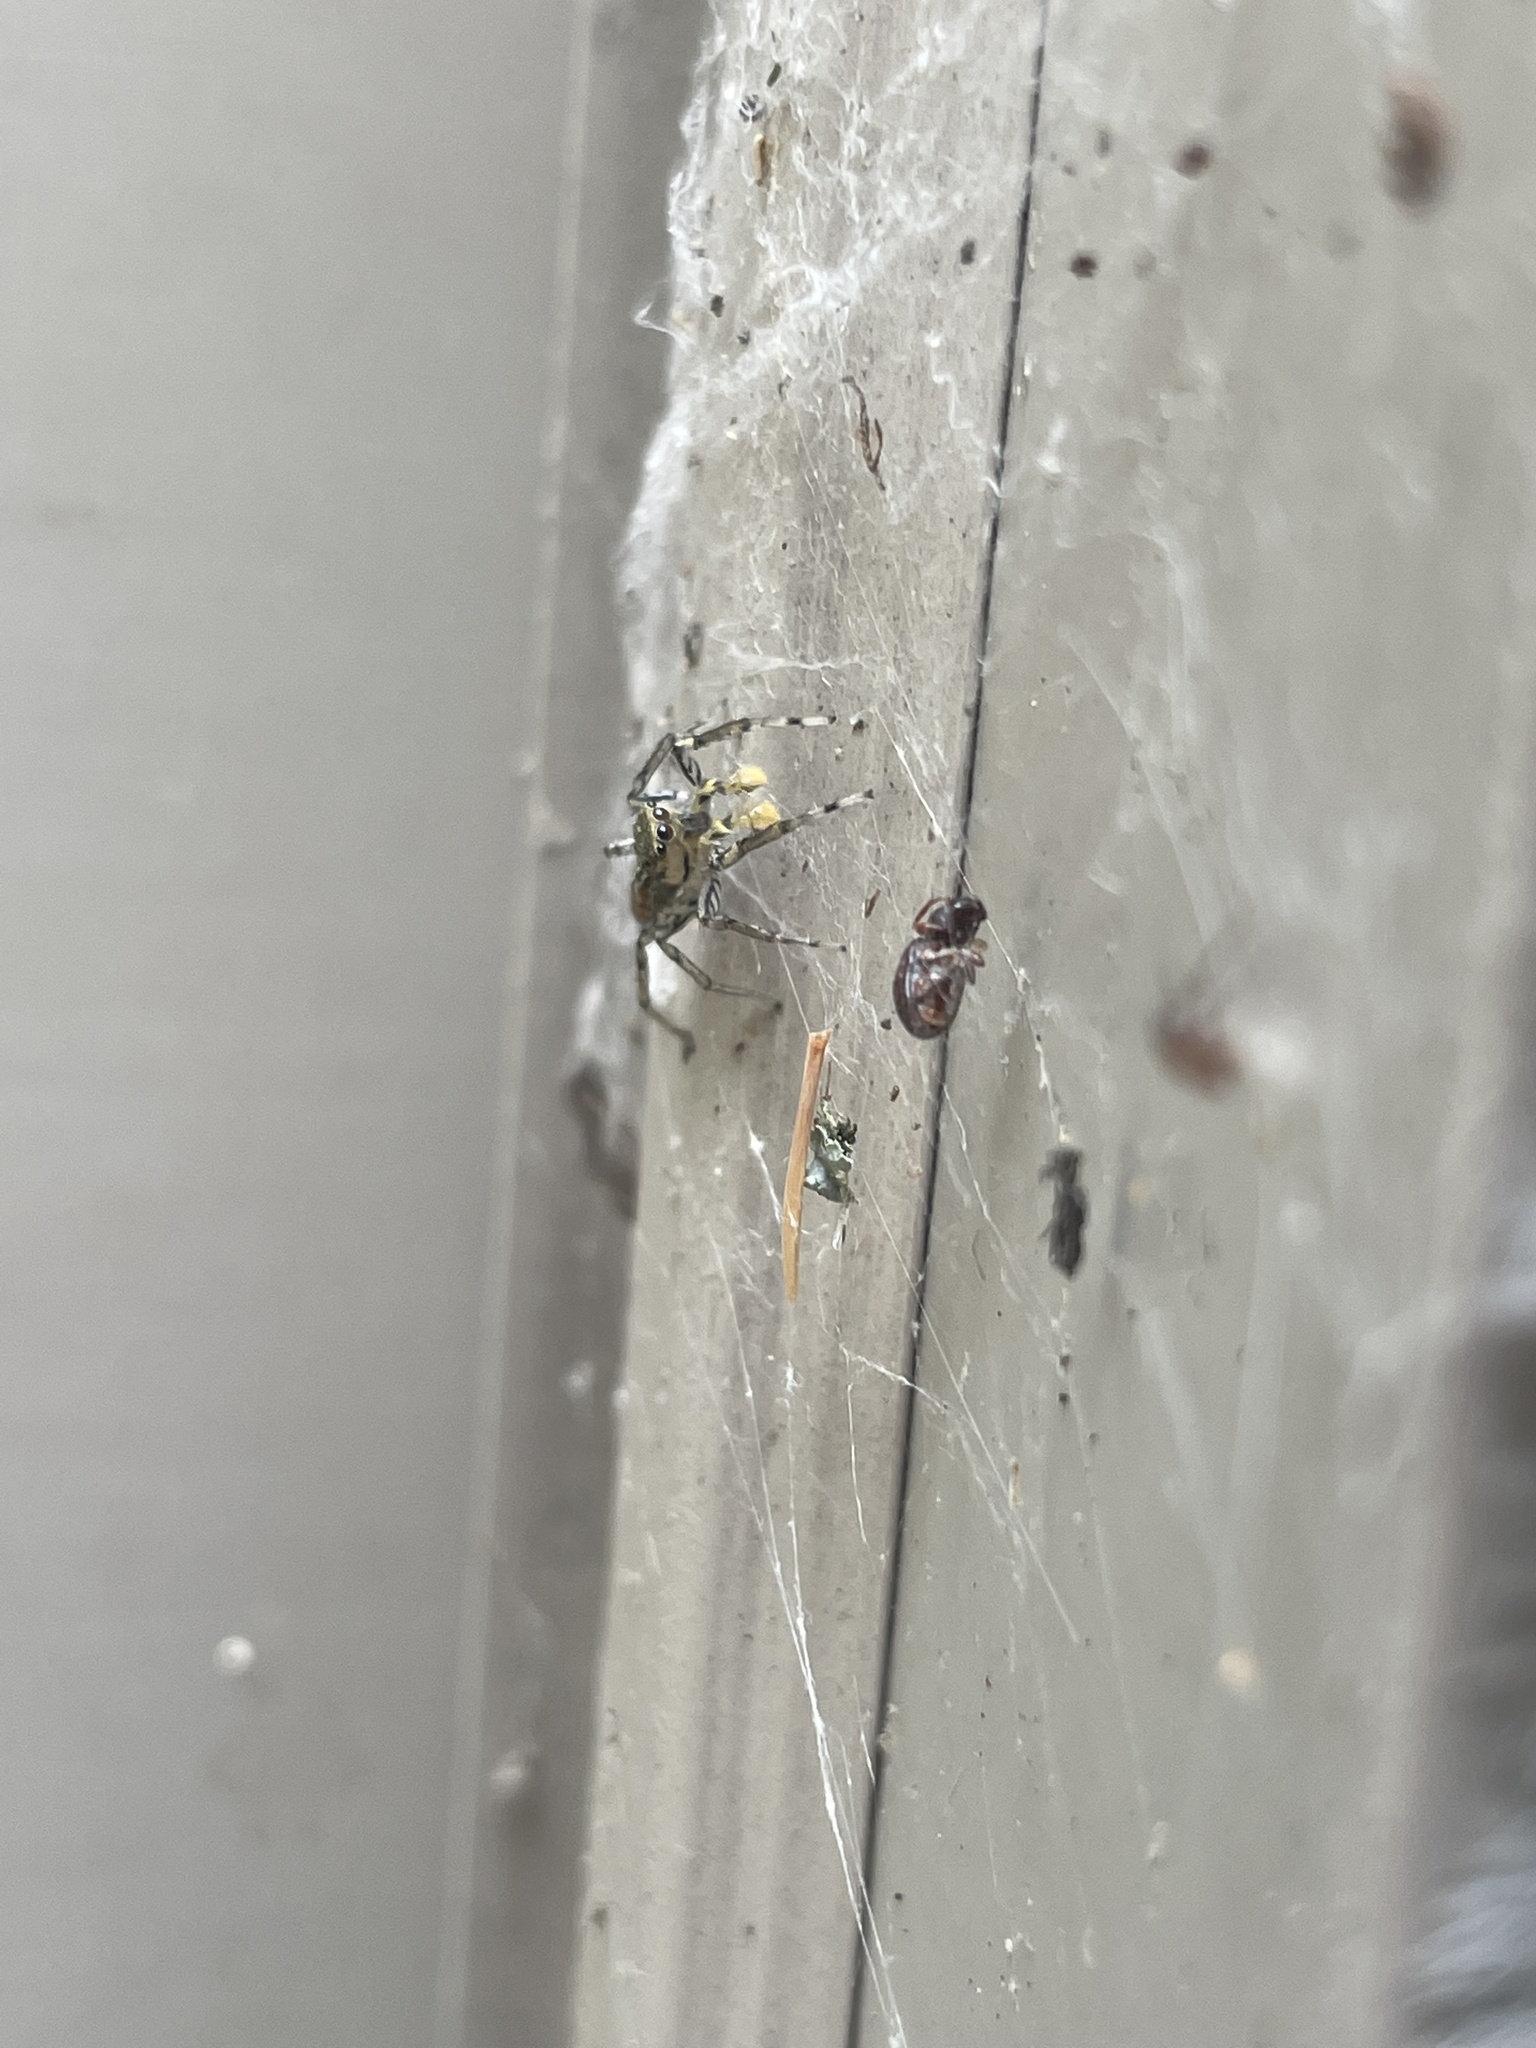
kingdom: Animalia
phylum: Arthropoda
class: Arachnida
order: Araneae
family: Salticidae
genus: Maevia
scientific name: Maevia inclemens
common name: Dimorphic jumper
